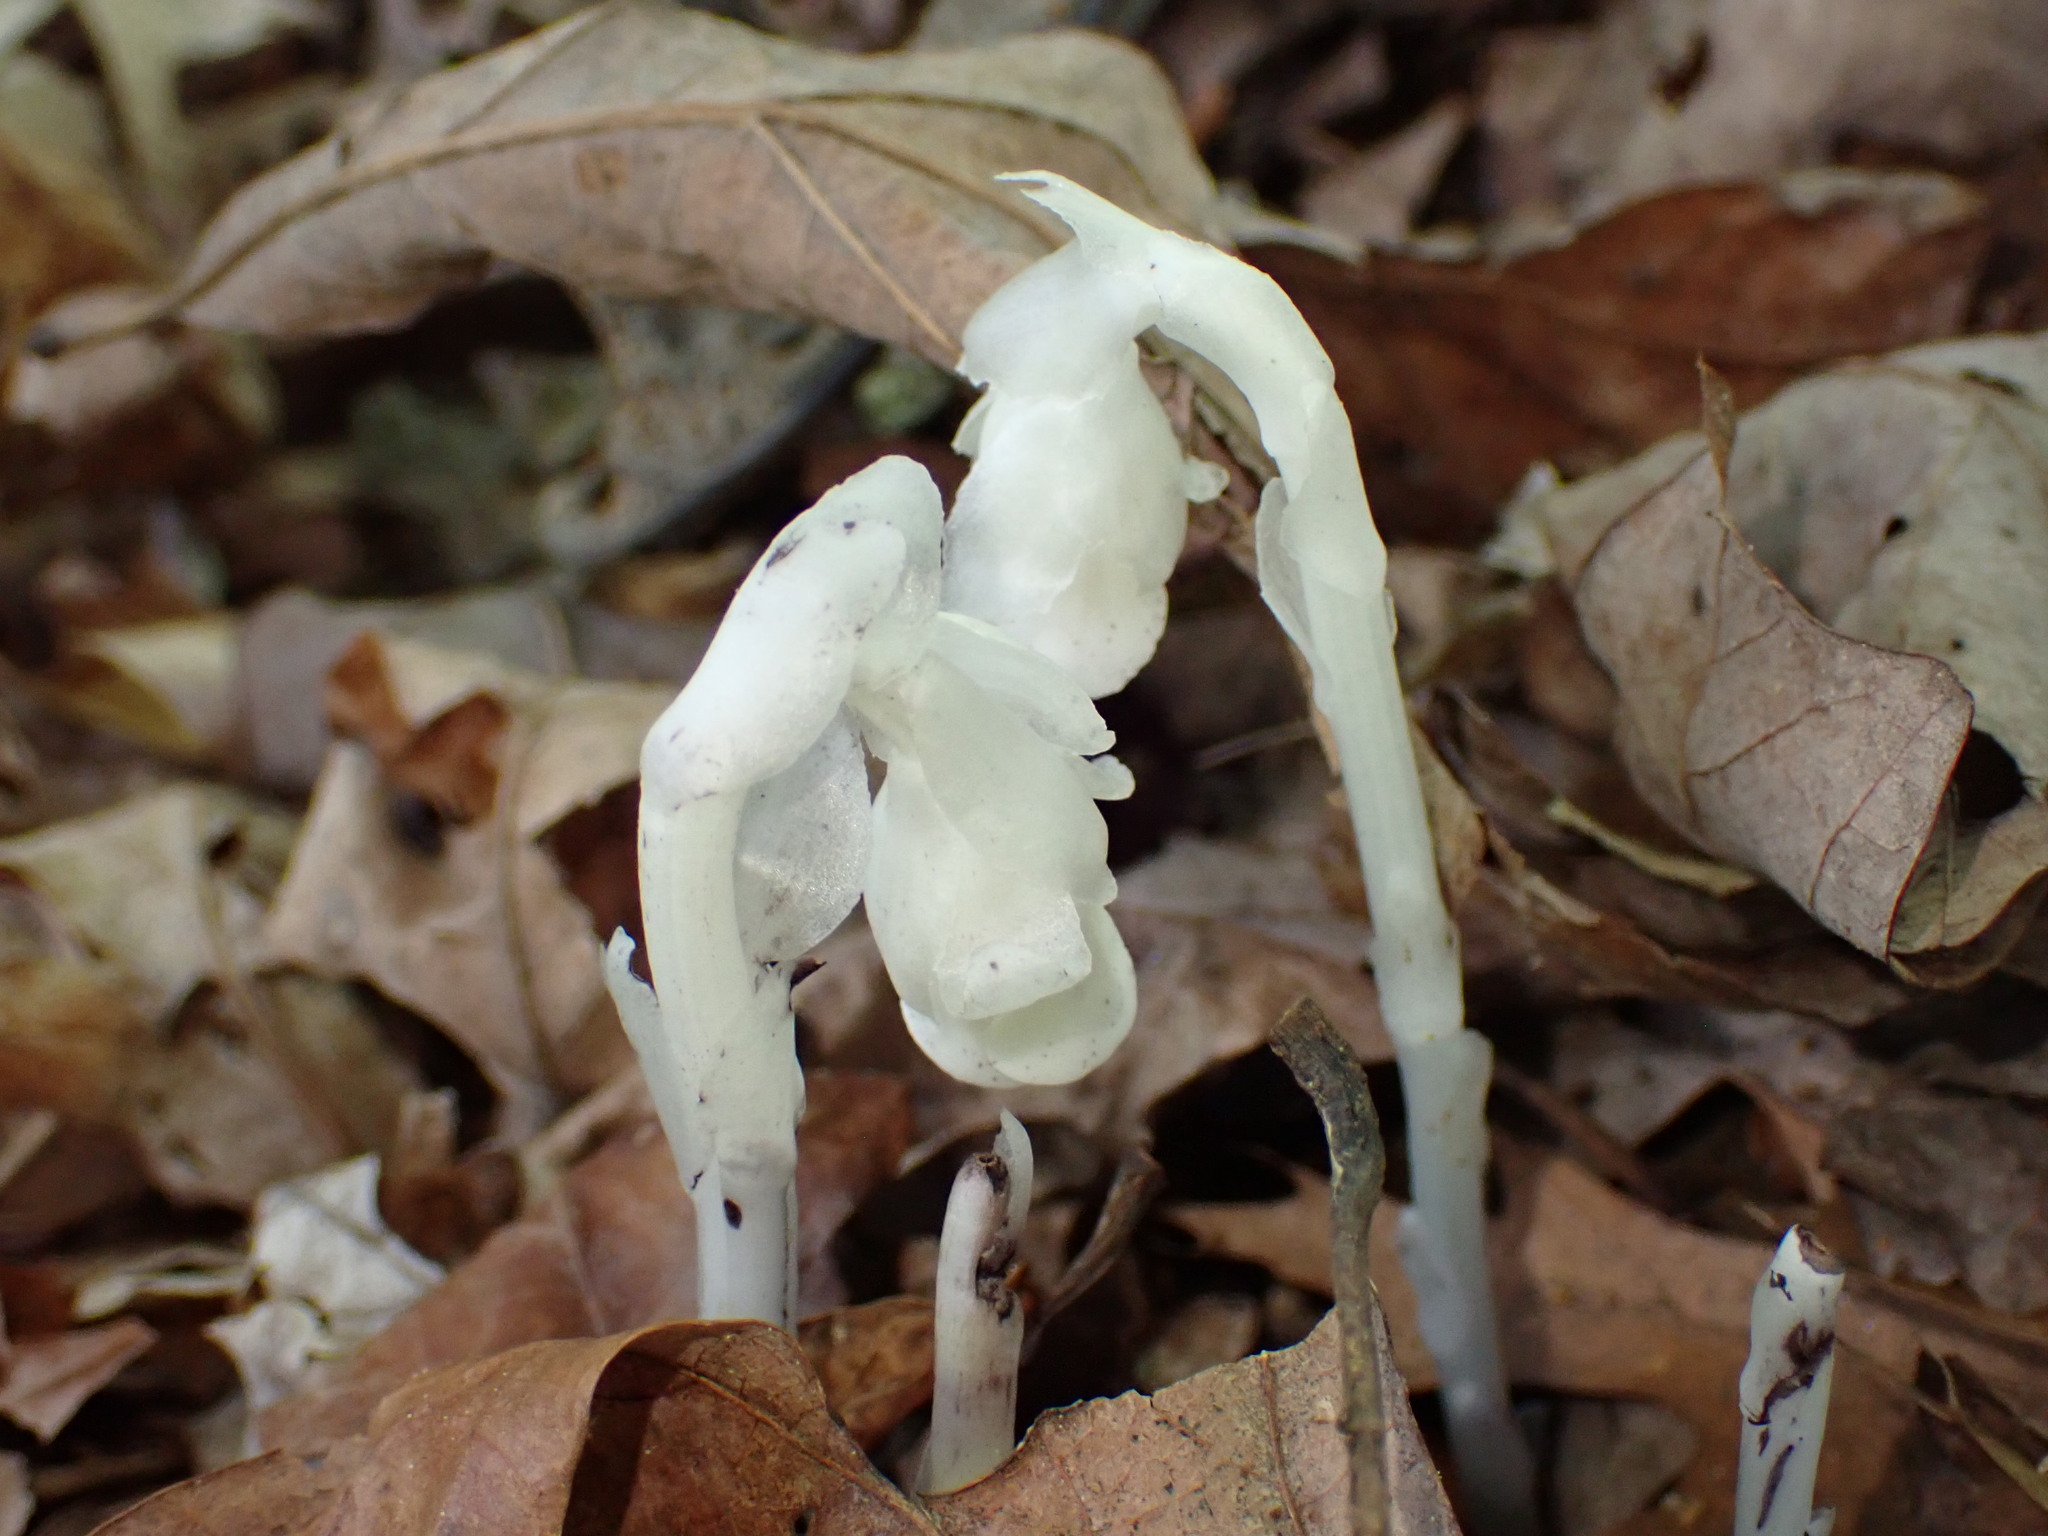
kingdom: Plantae
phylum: Tracheophyta
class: Magnoliopsida
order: Ericales
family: Ericaceae
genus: Monotropa
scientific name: Monotropa uniflora
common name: Convulsion root
